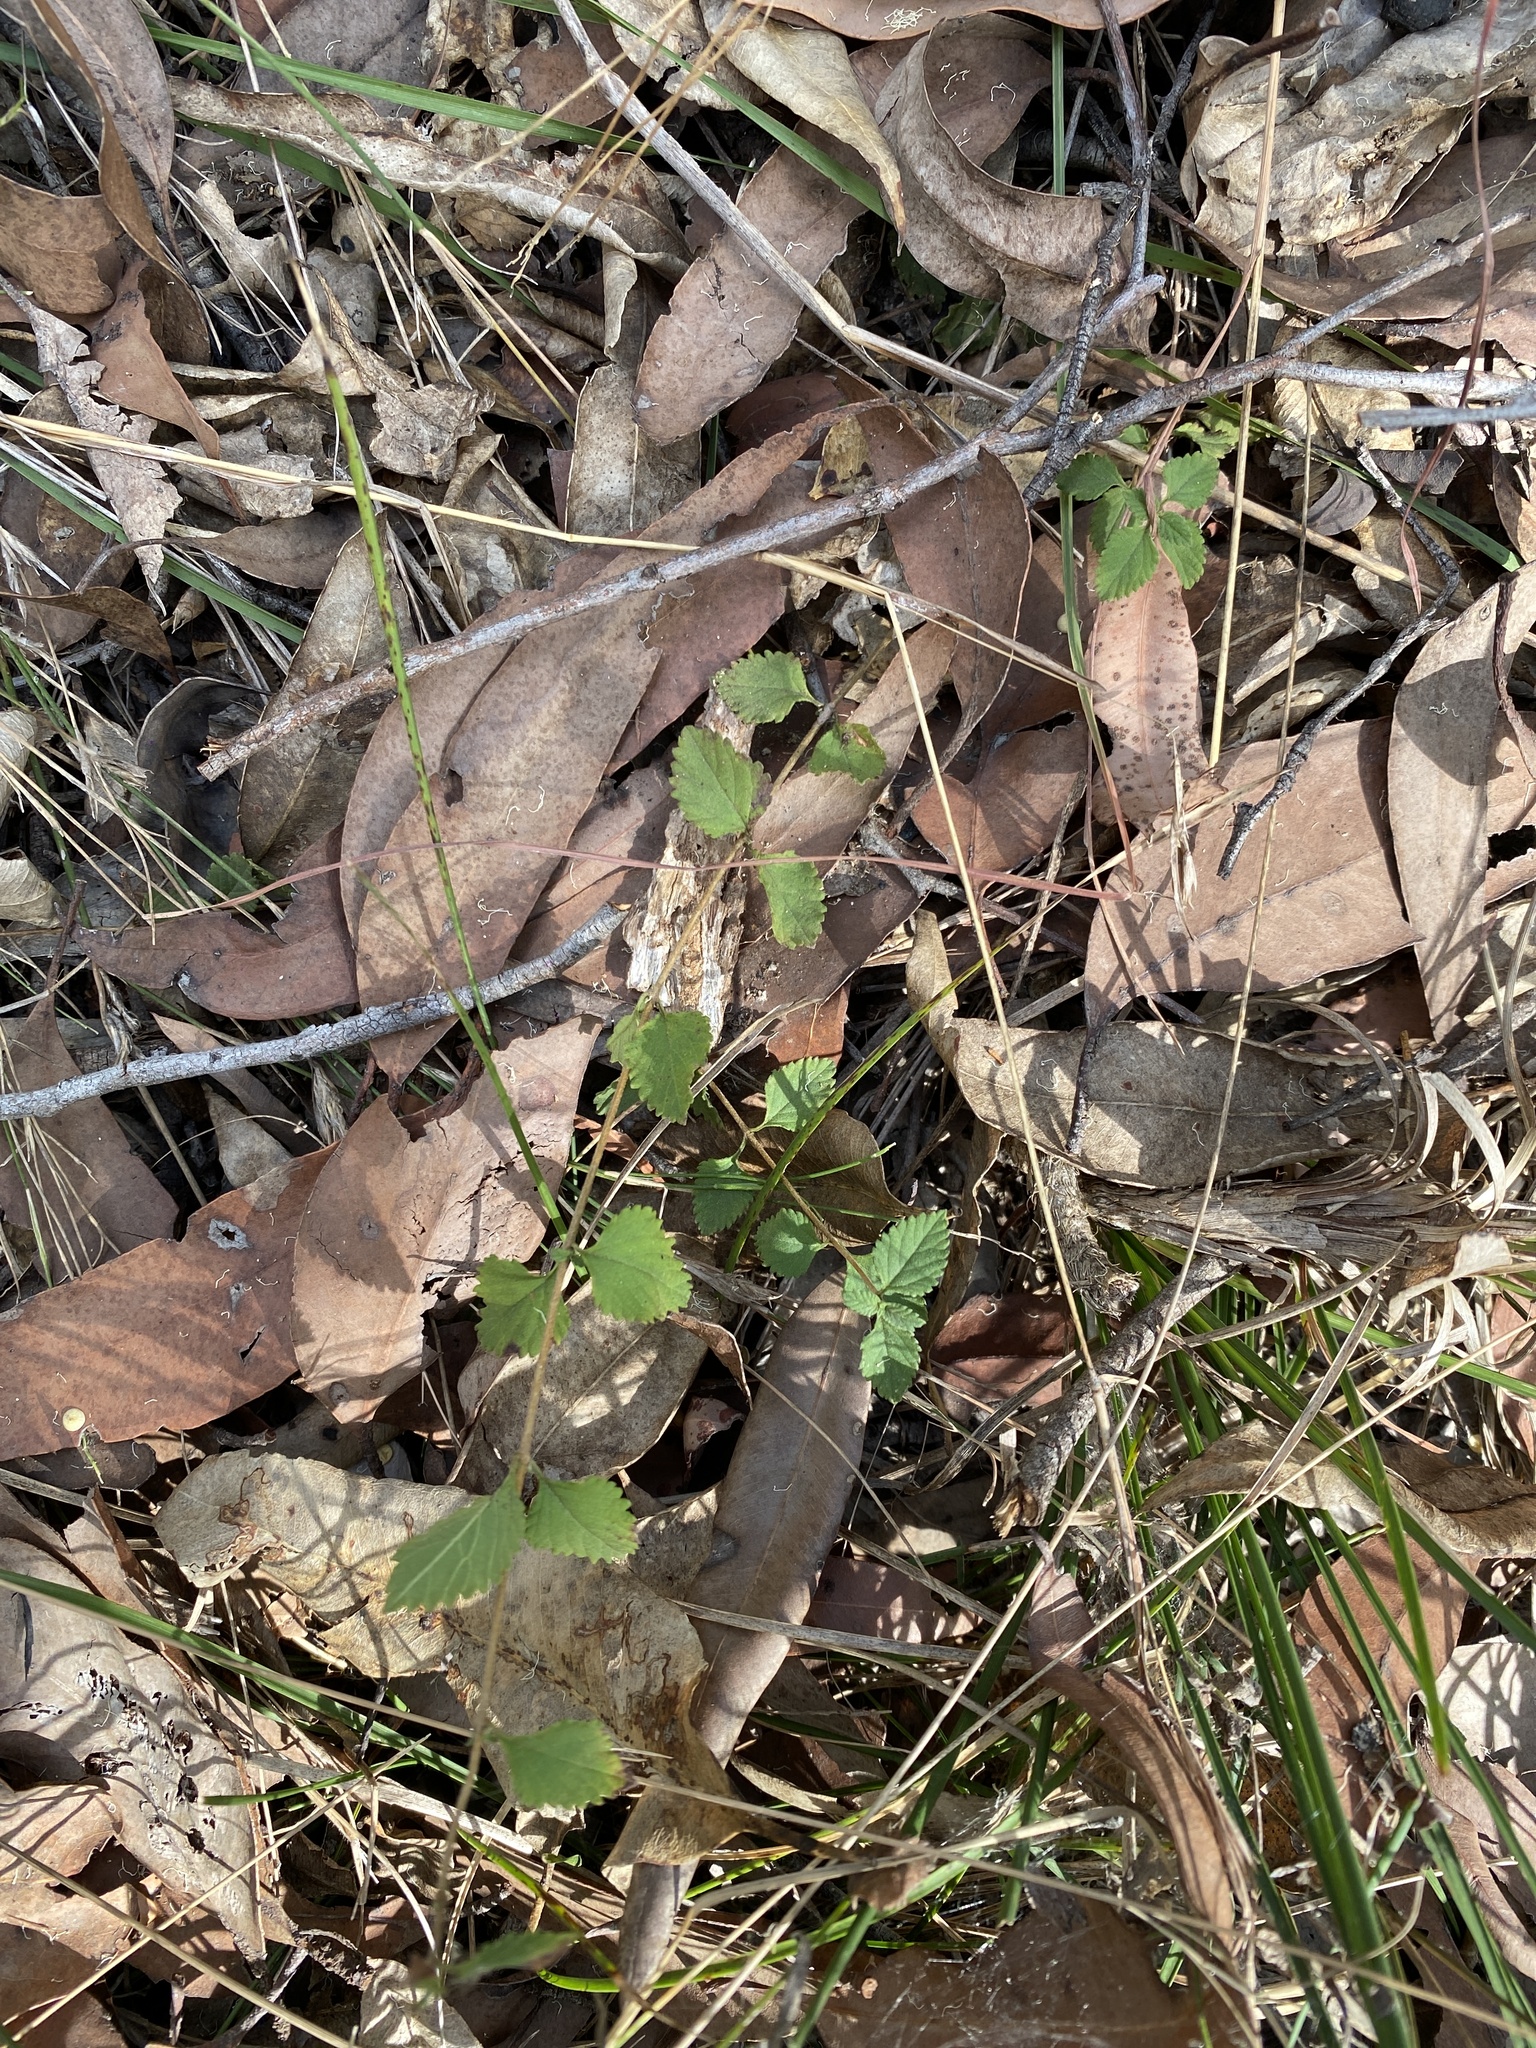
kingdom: Plantae
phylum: Tracheophyta
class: Magnoliopsida
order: Lamiales
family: Verbenaceae
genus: Lantana
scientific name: Lantana montevidensis
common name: Trailing shrubverbena
